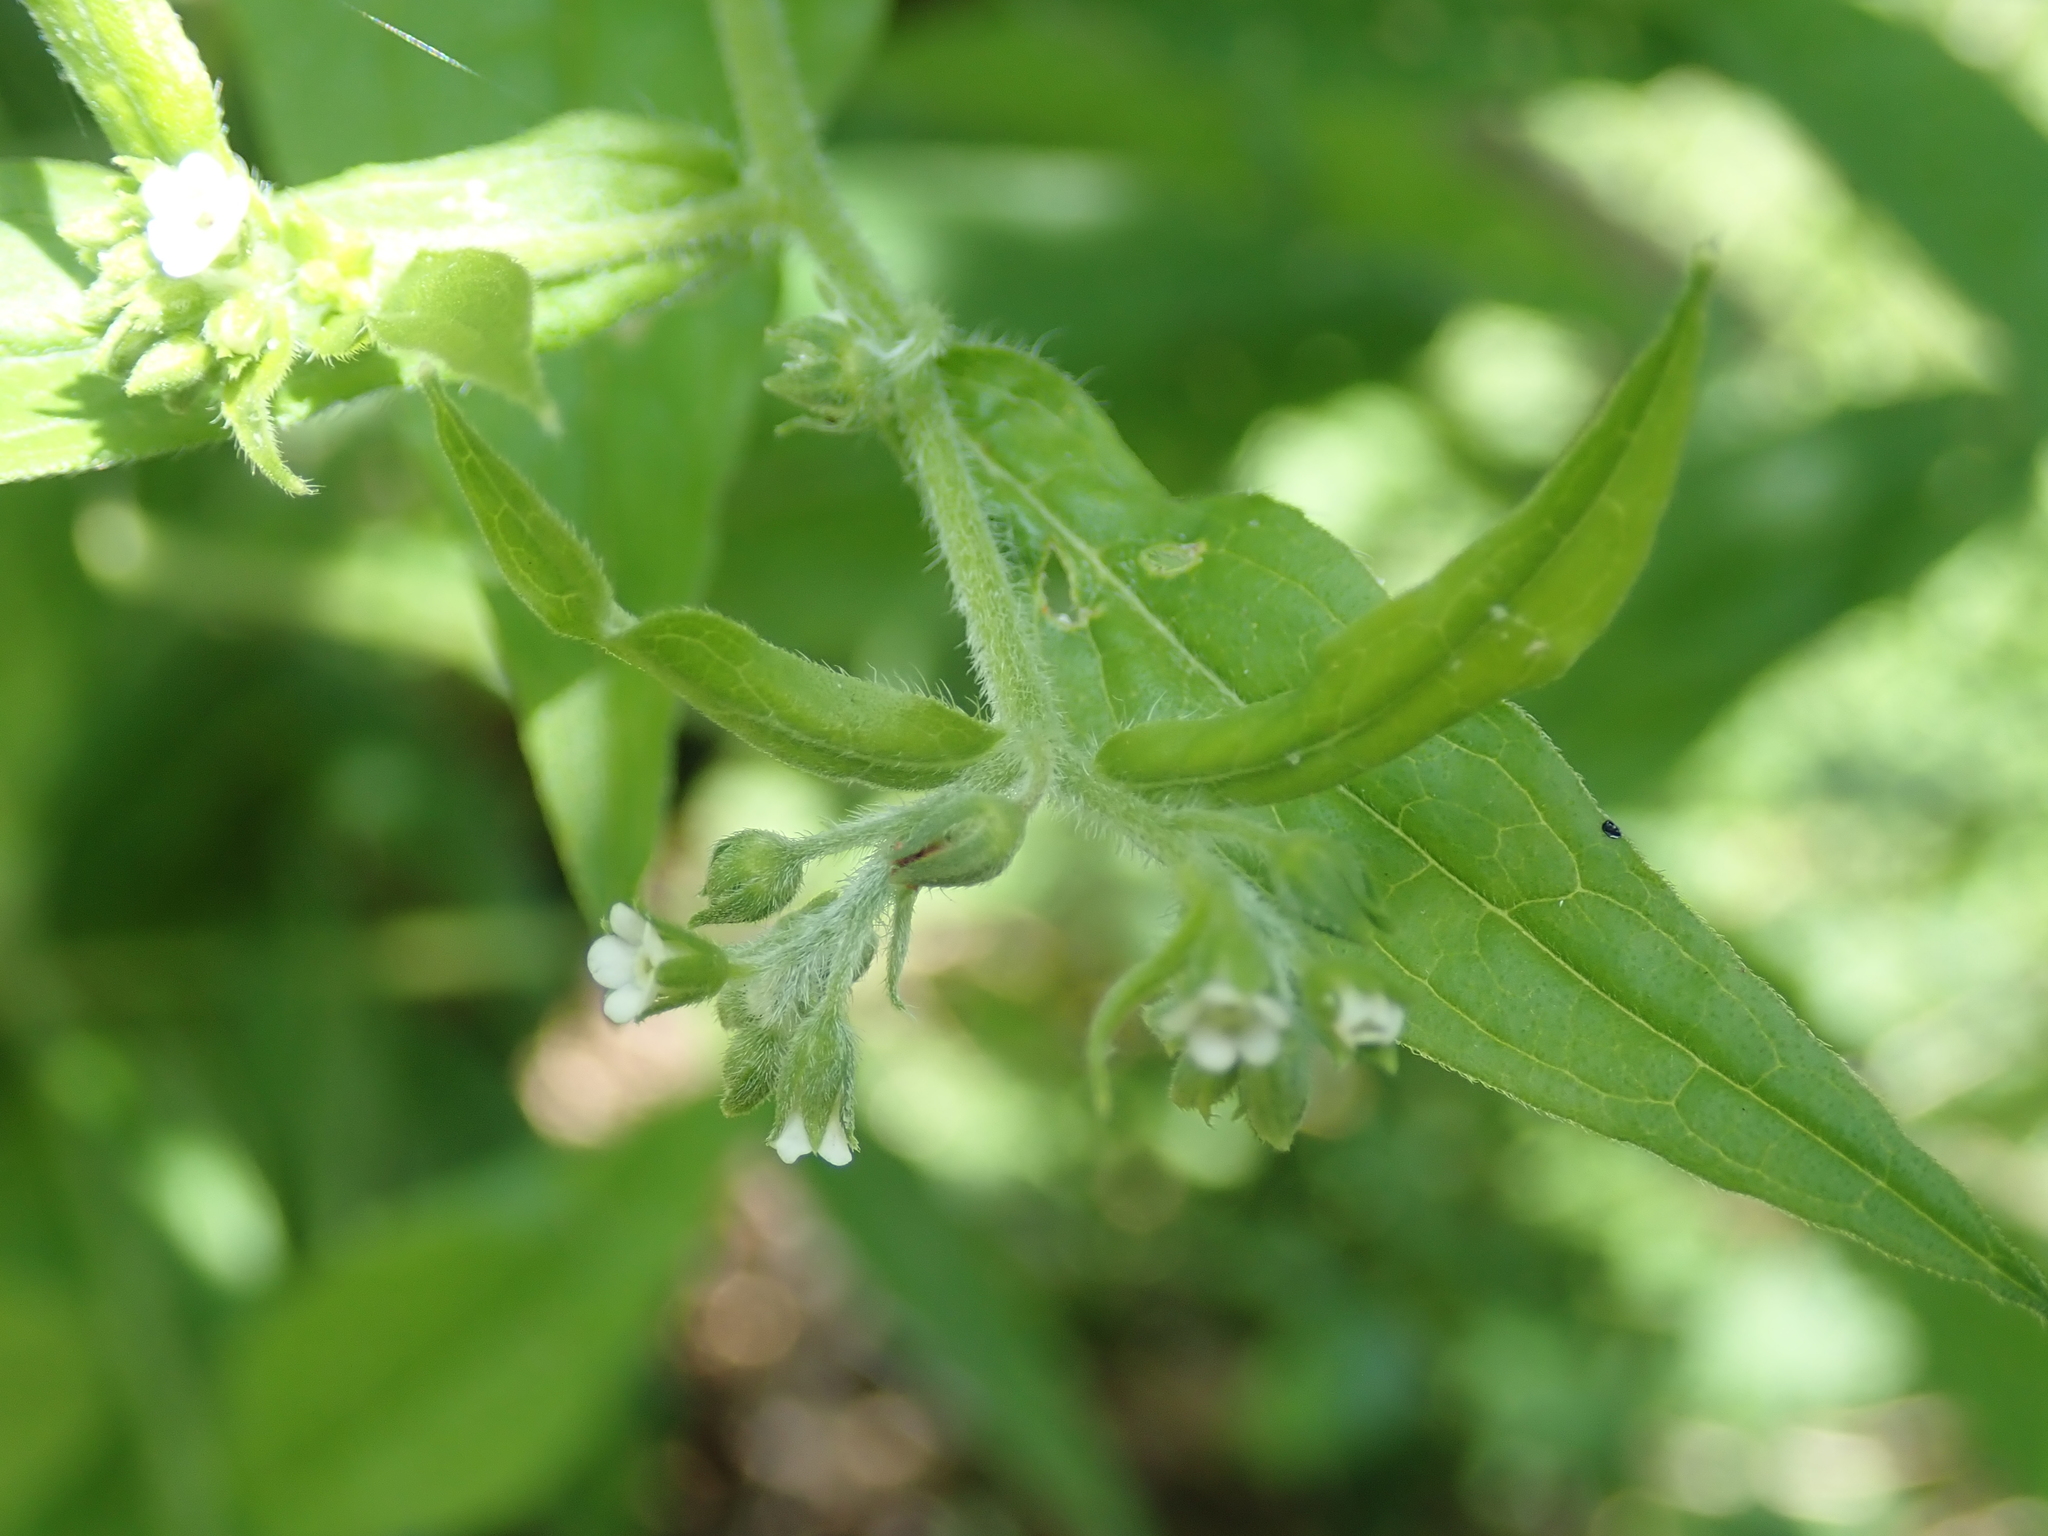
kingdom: Plantae
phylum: Tracheophyta
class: Magnoliopsida
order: Boraginales
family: Boraginaceae
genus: Hackelia
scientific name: Hackelia virginiana
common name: Beggar's-lice
